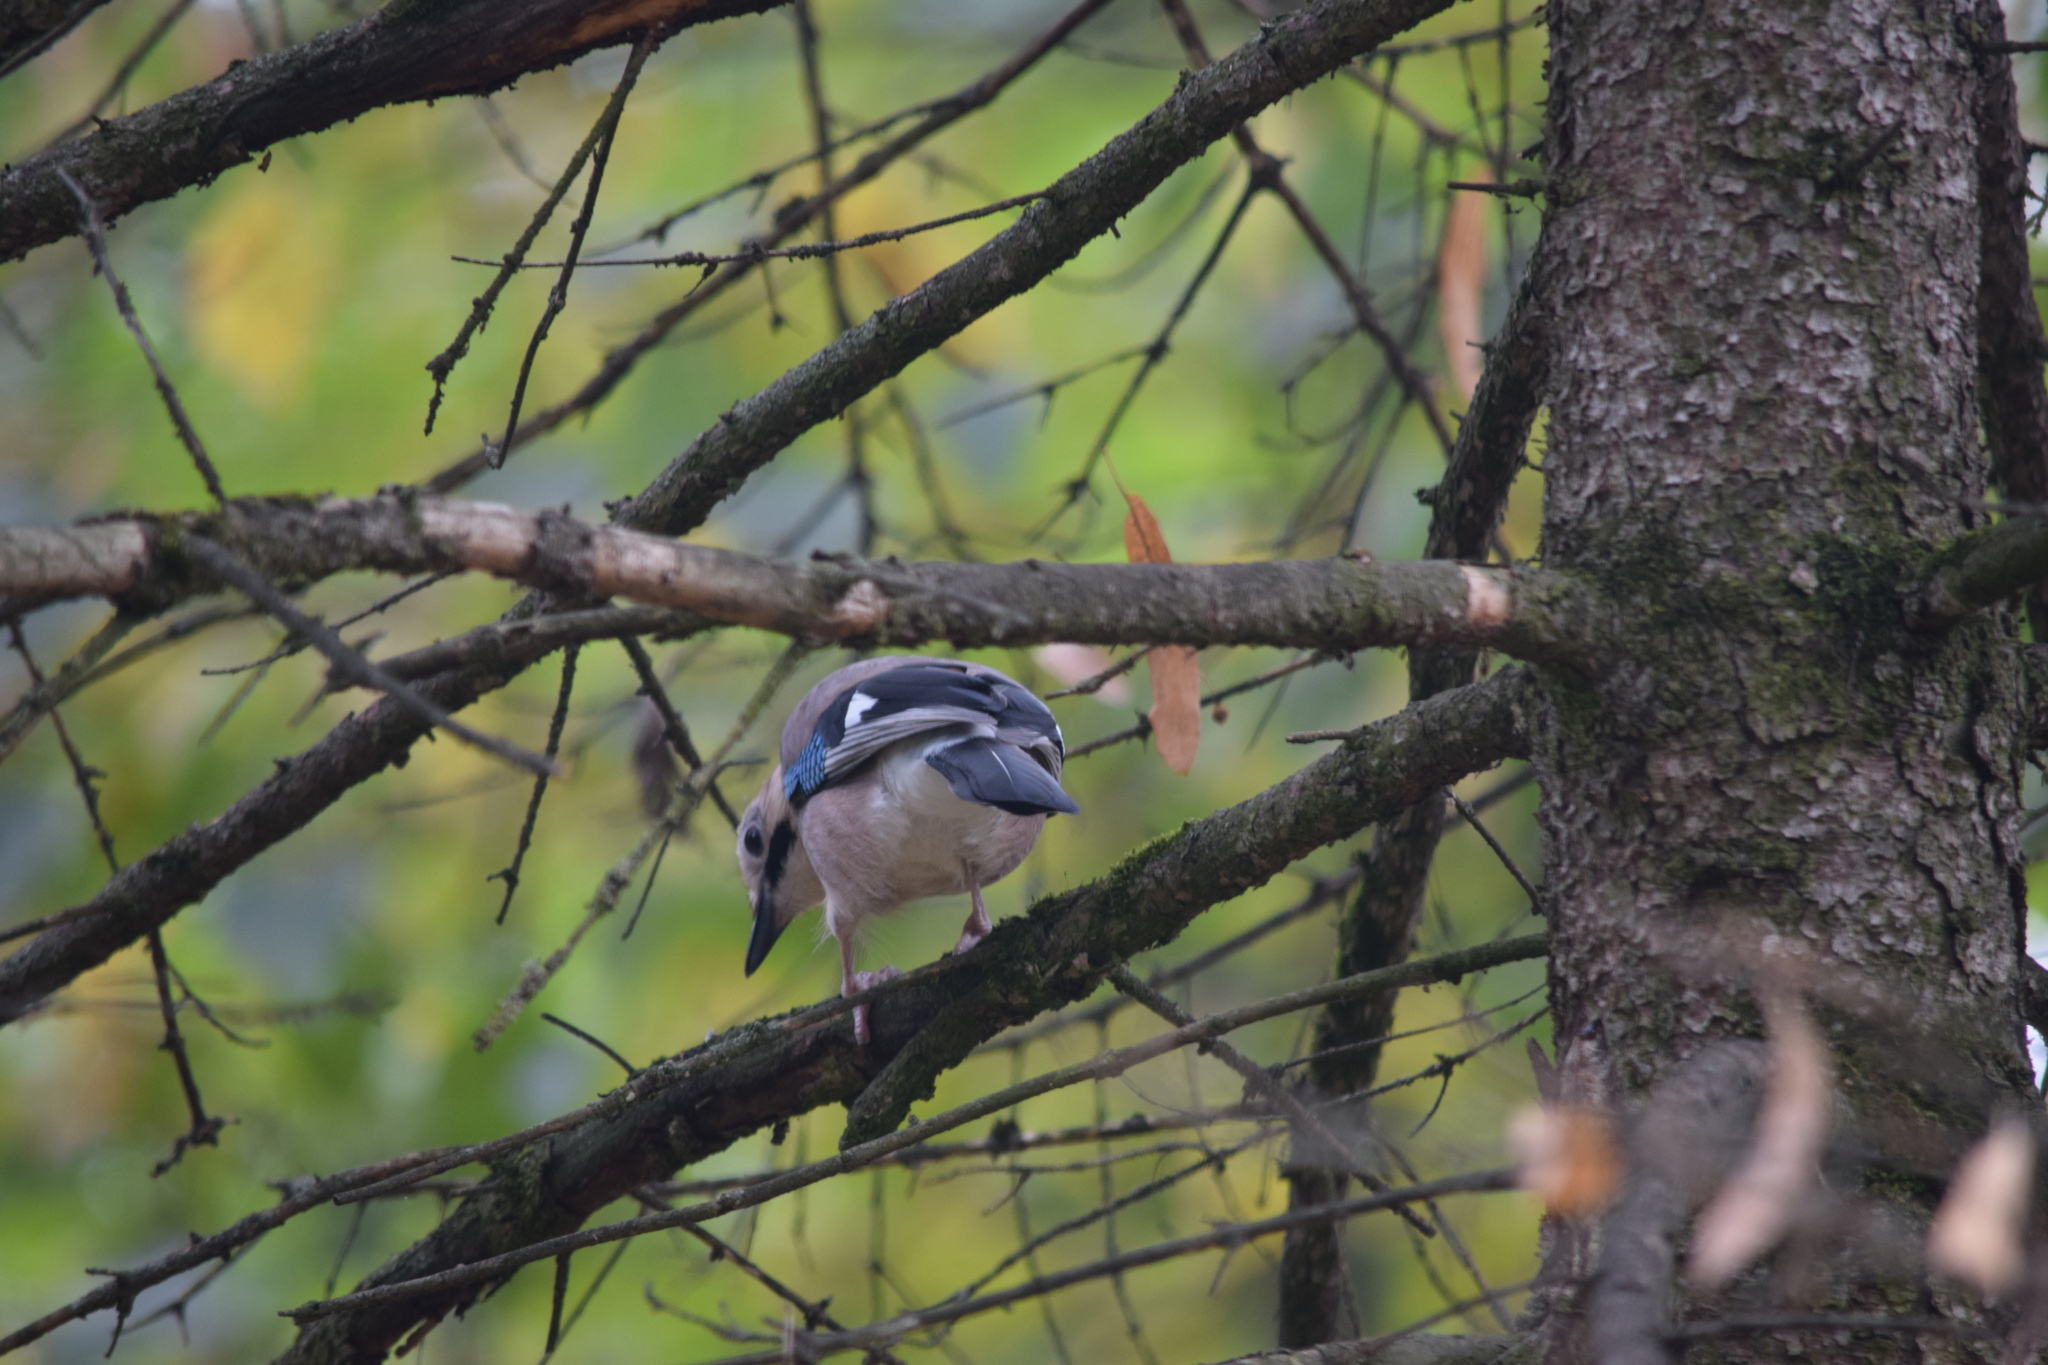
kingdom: Animalia
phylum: Chordata
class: Aves
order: Passeriformes
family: Corvidae
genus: Garrulus
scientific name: Garrulus glandarius
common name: Eurasian jay
